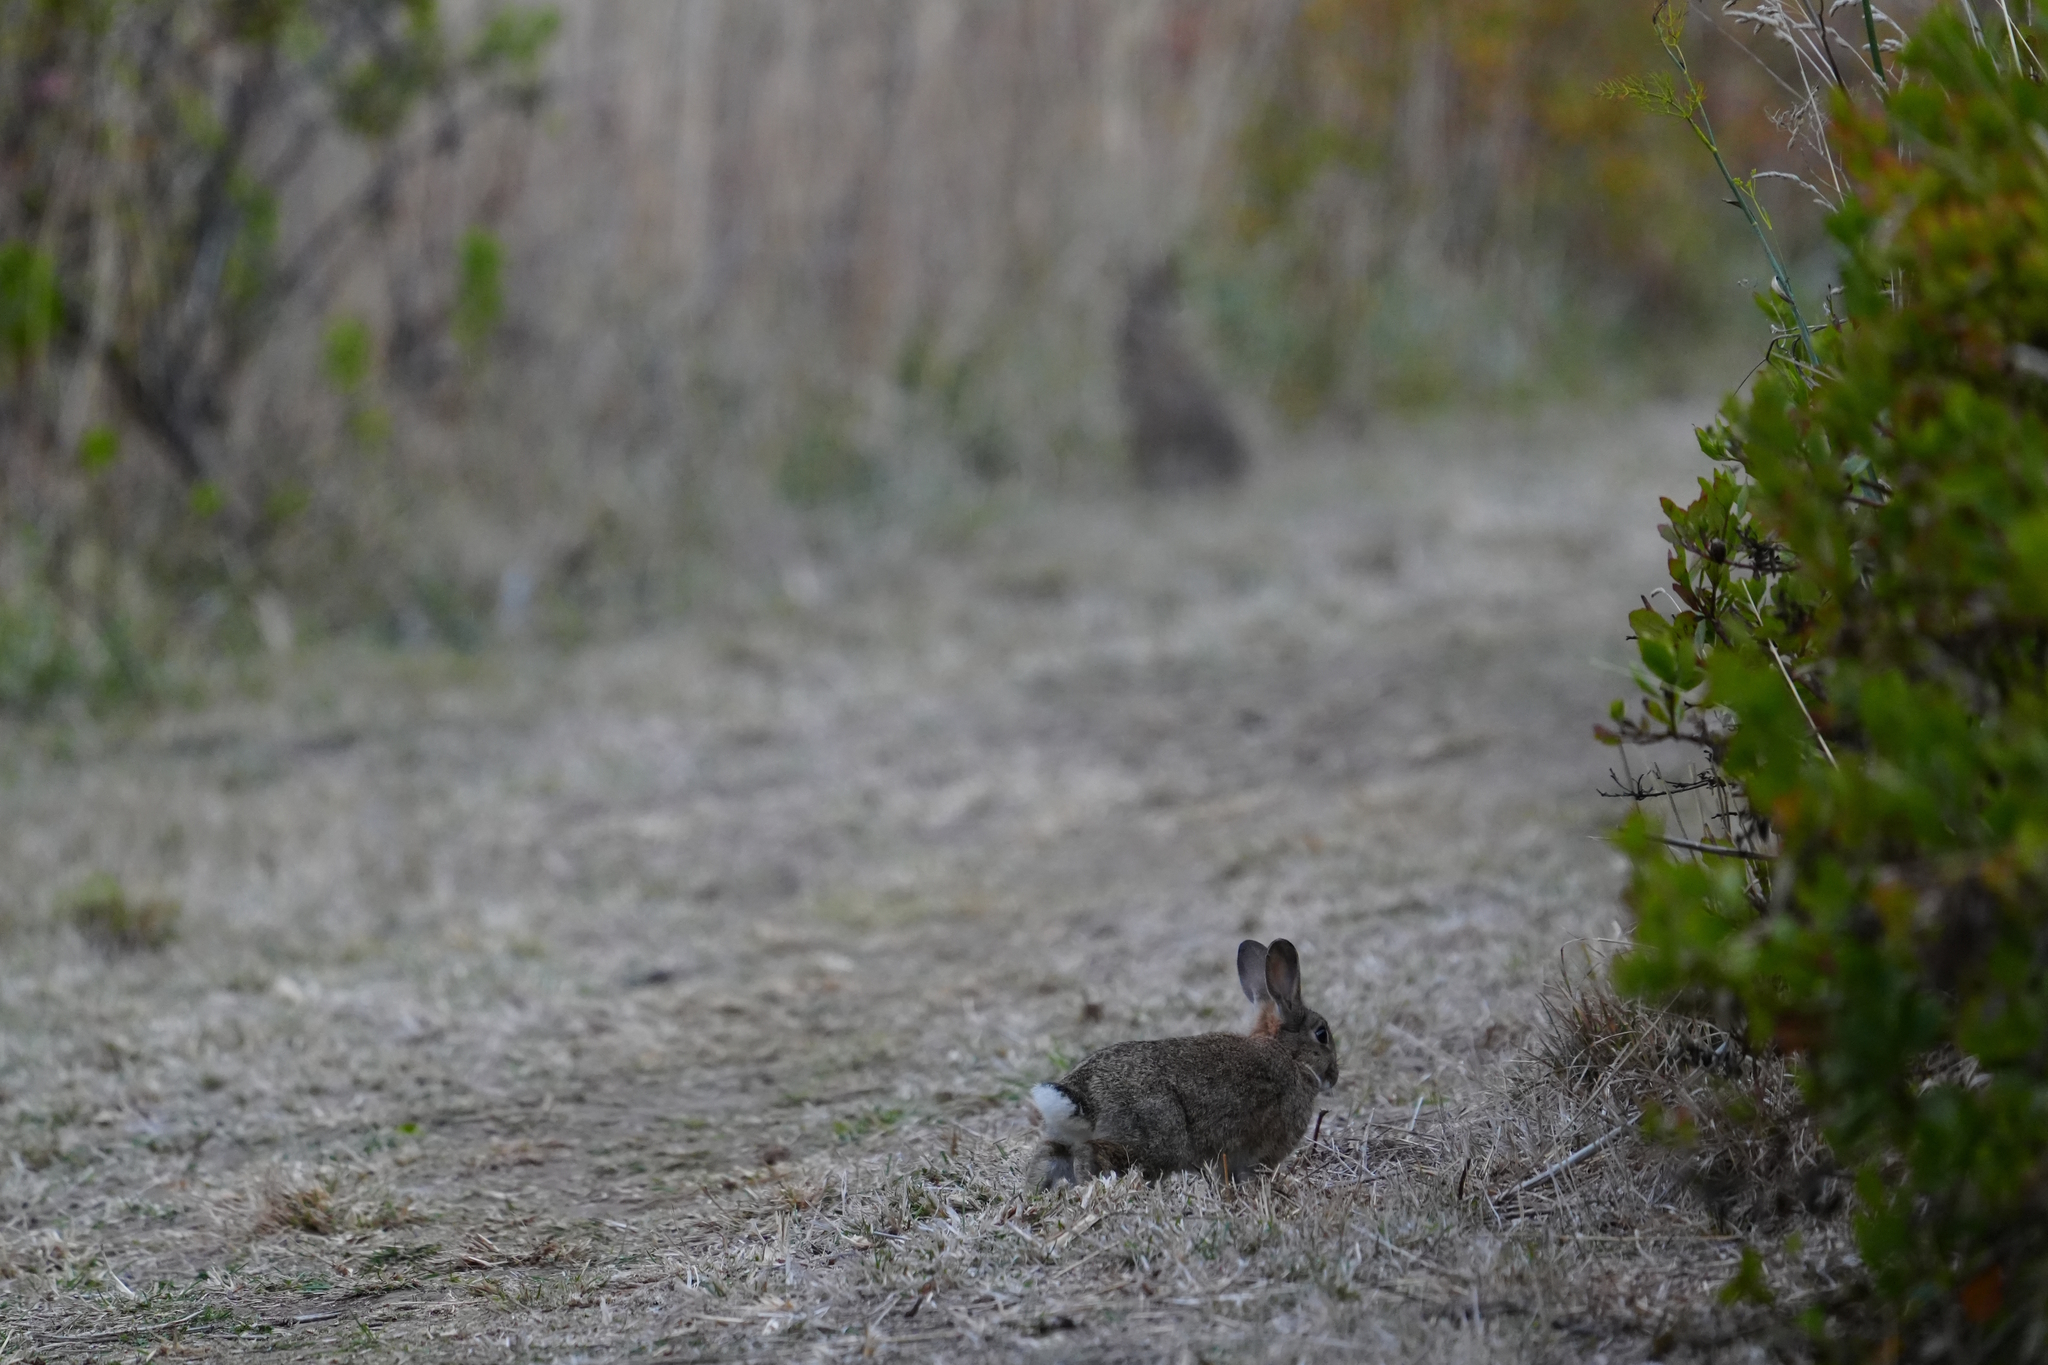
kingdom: Animalia
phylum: Chordata
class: Mammalia
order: Lagomorpha
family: Leporidae
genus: Oryctolagus
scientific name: Oryctolagus cuniculus
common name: European rabbit
